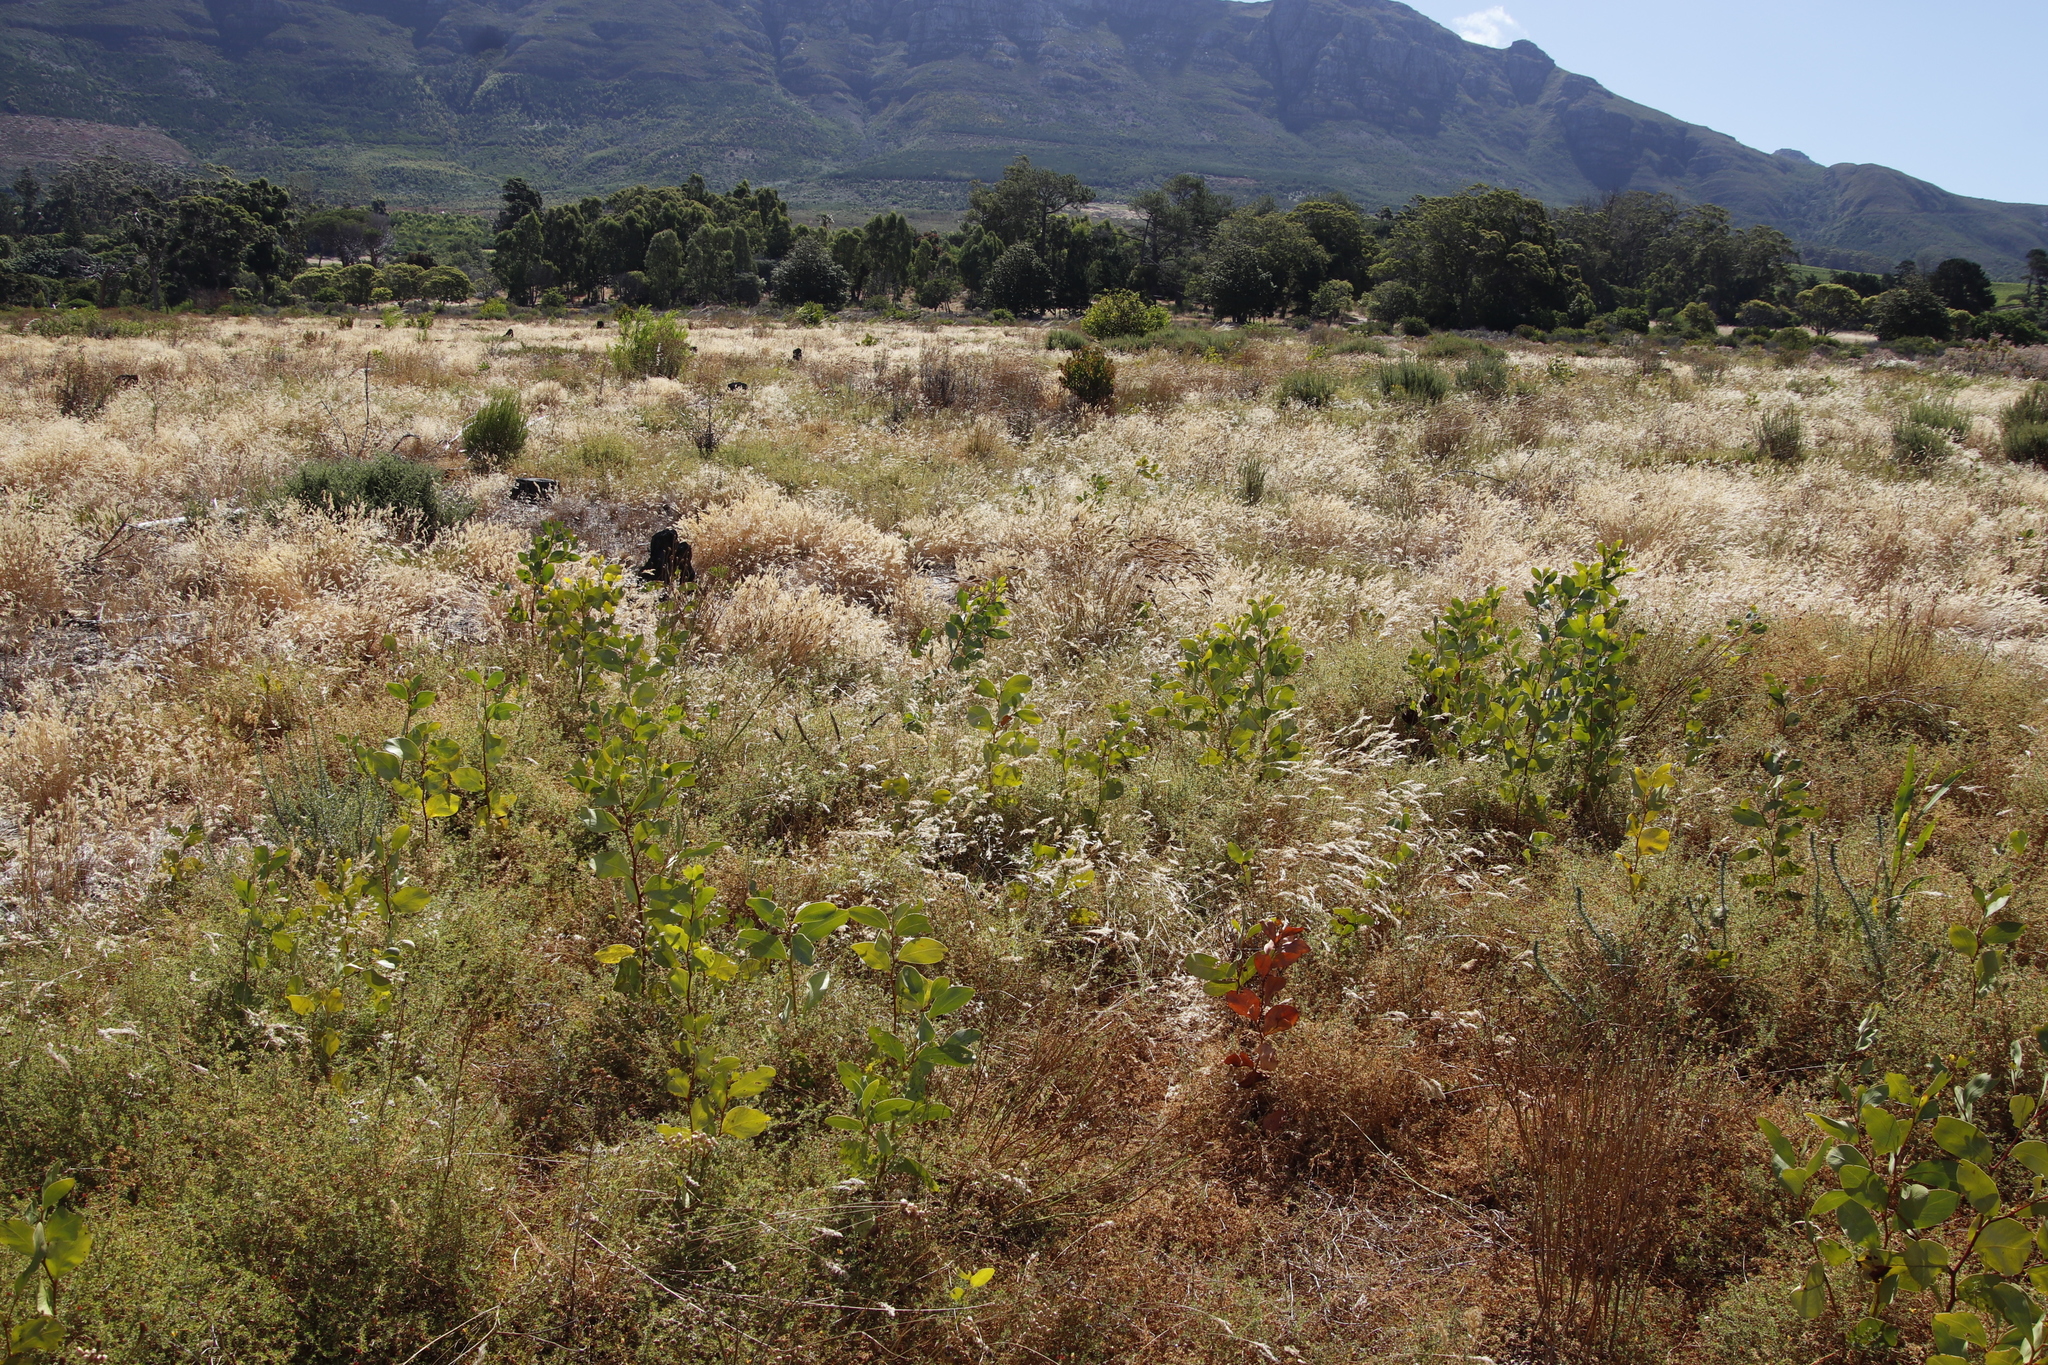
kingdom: Plantae
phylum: Tracheophyta
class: Magnoliopsida
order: Fabales
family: Fabaceae
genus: Acacia
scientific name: Acacia pycnantha
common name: Golden wattle
